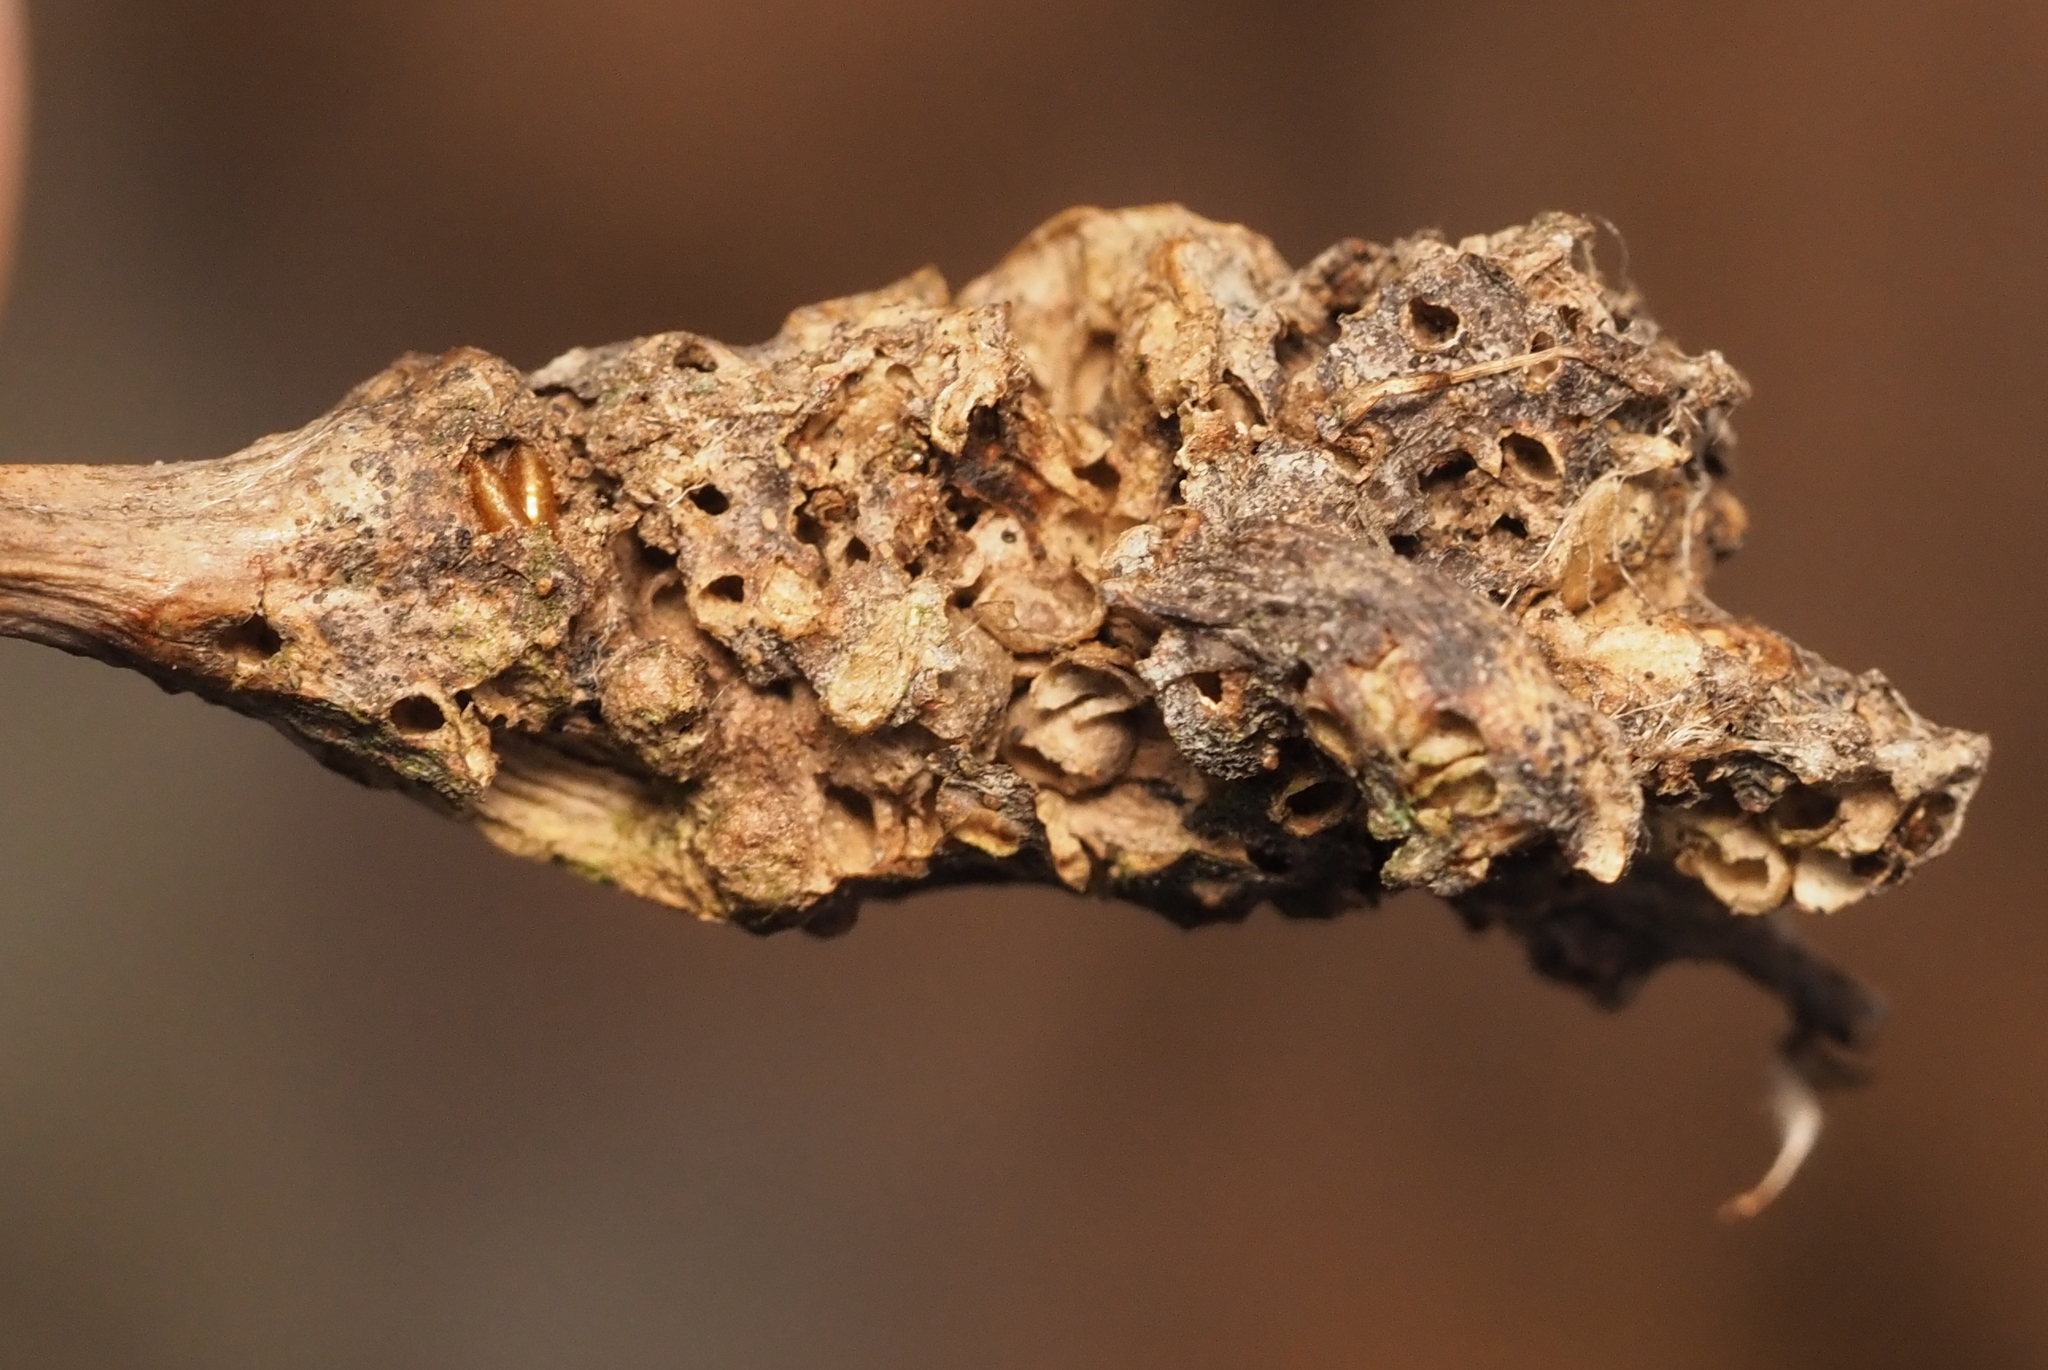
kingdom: Animalia
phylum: Arthropoda
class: Insecta
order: Hymenoptera
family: Cynipidae
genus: Neuroterus
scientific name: Neuroterus quercusbaccarum
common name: Common spangle gall
